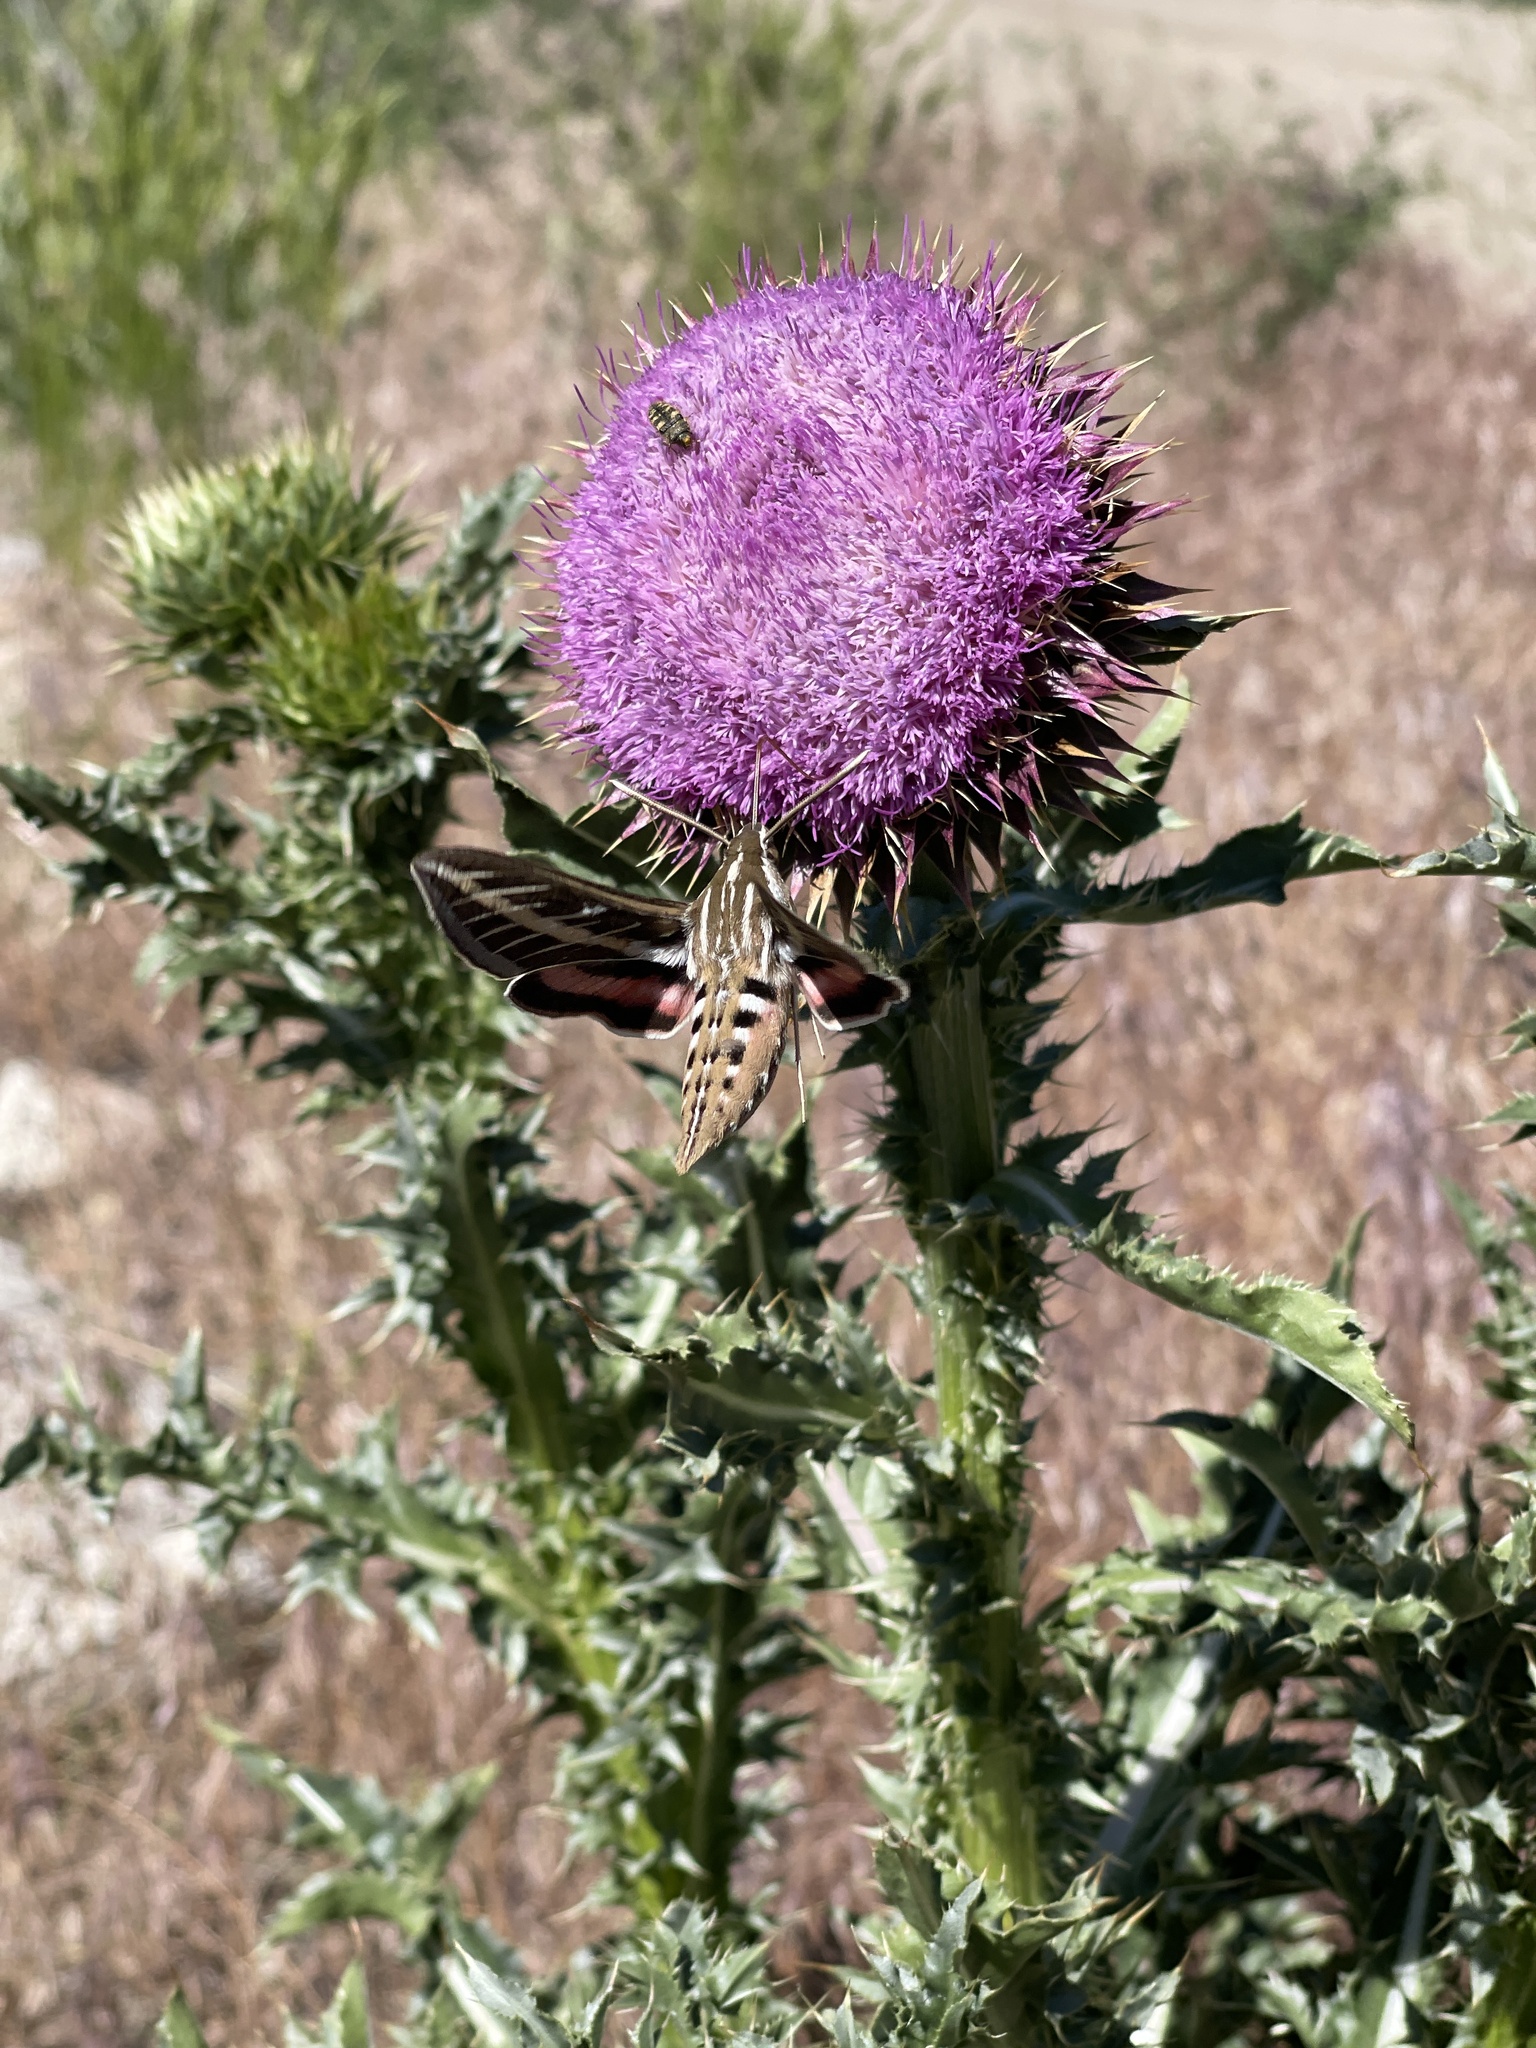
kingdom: Animalia
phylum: Arthropoda
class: Insecta
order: Lepidoptera
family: Sphingidae
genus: Hyles
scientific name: Hyles lineata
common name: White-lined sphinx
